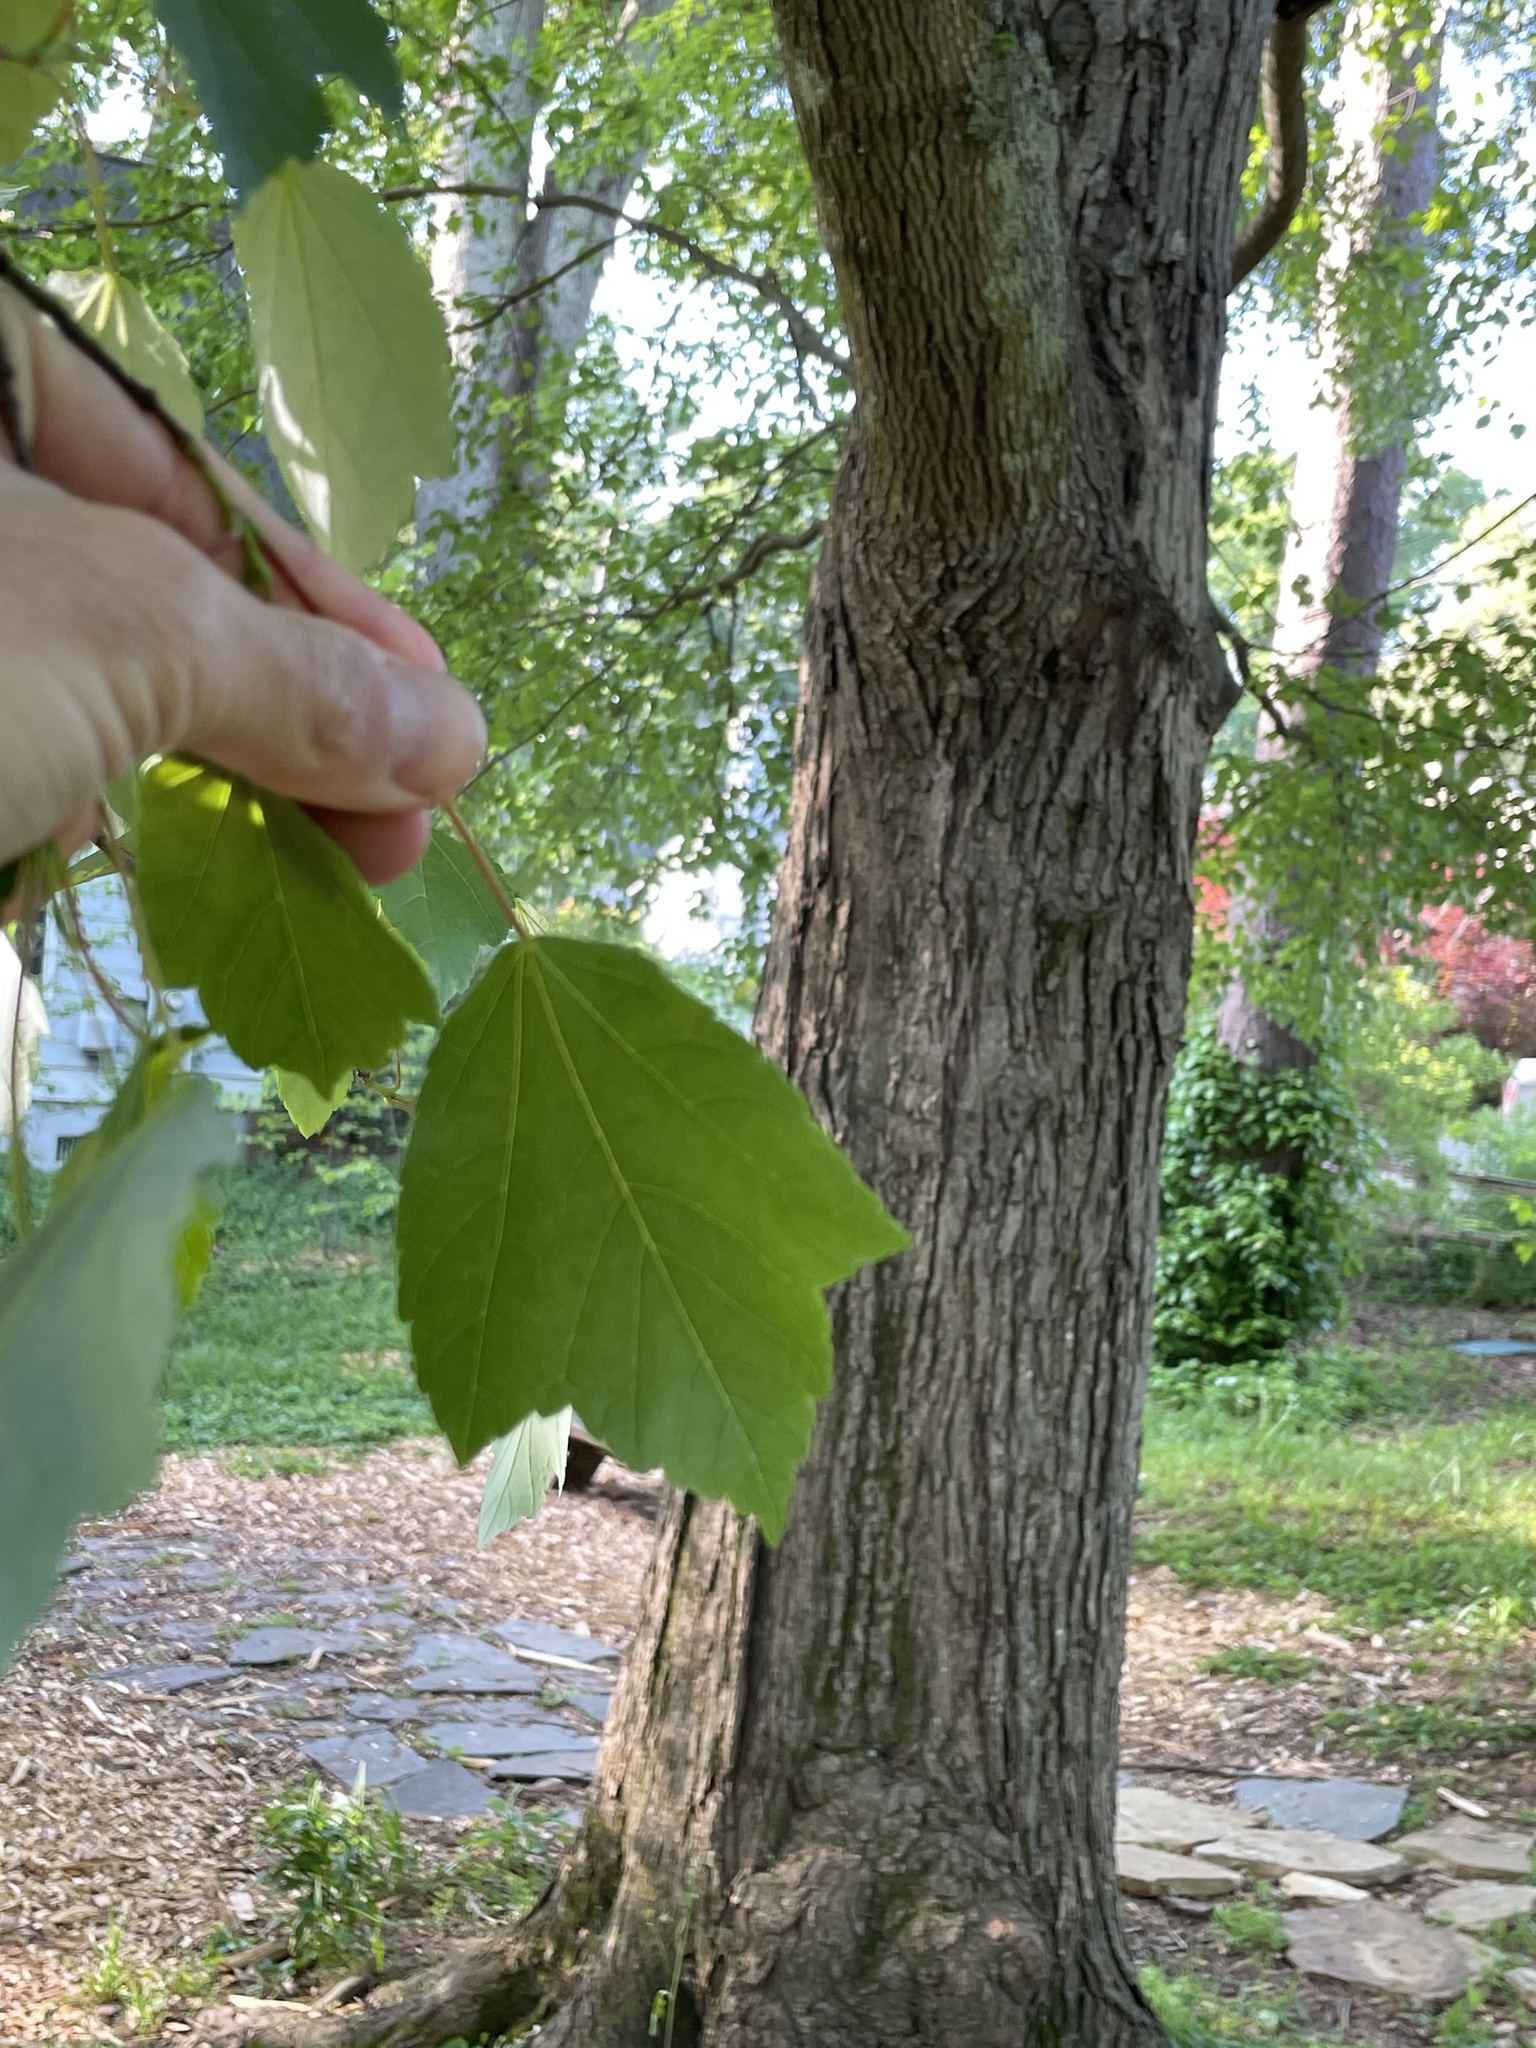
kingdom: Plantae
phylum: Tracheophyta
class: Magnoliopsida
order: Sapindales
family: Sapindaceae
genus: Acer
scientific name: Acer rubrum
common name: Red maple
